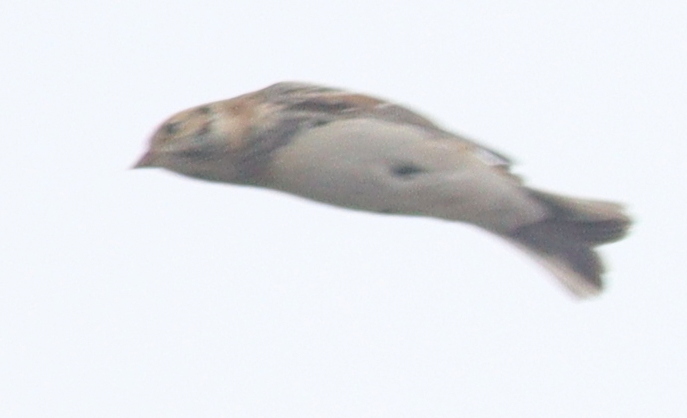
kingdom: Animalia
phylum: Chordata
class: Aves
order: Passeriformes
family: Calcariidae
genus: Calcarius
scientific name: Calcarius lapponicus
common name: Lapland longspur
